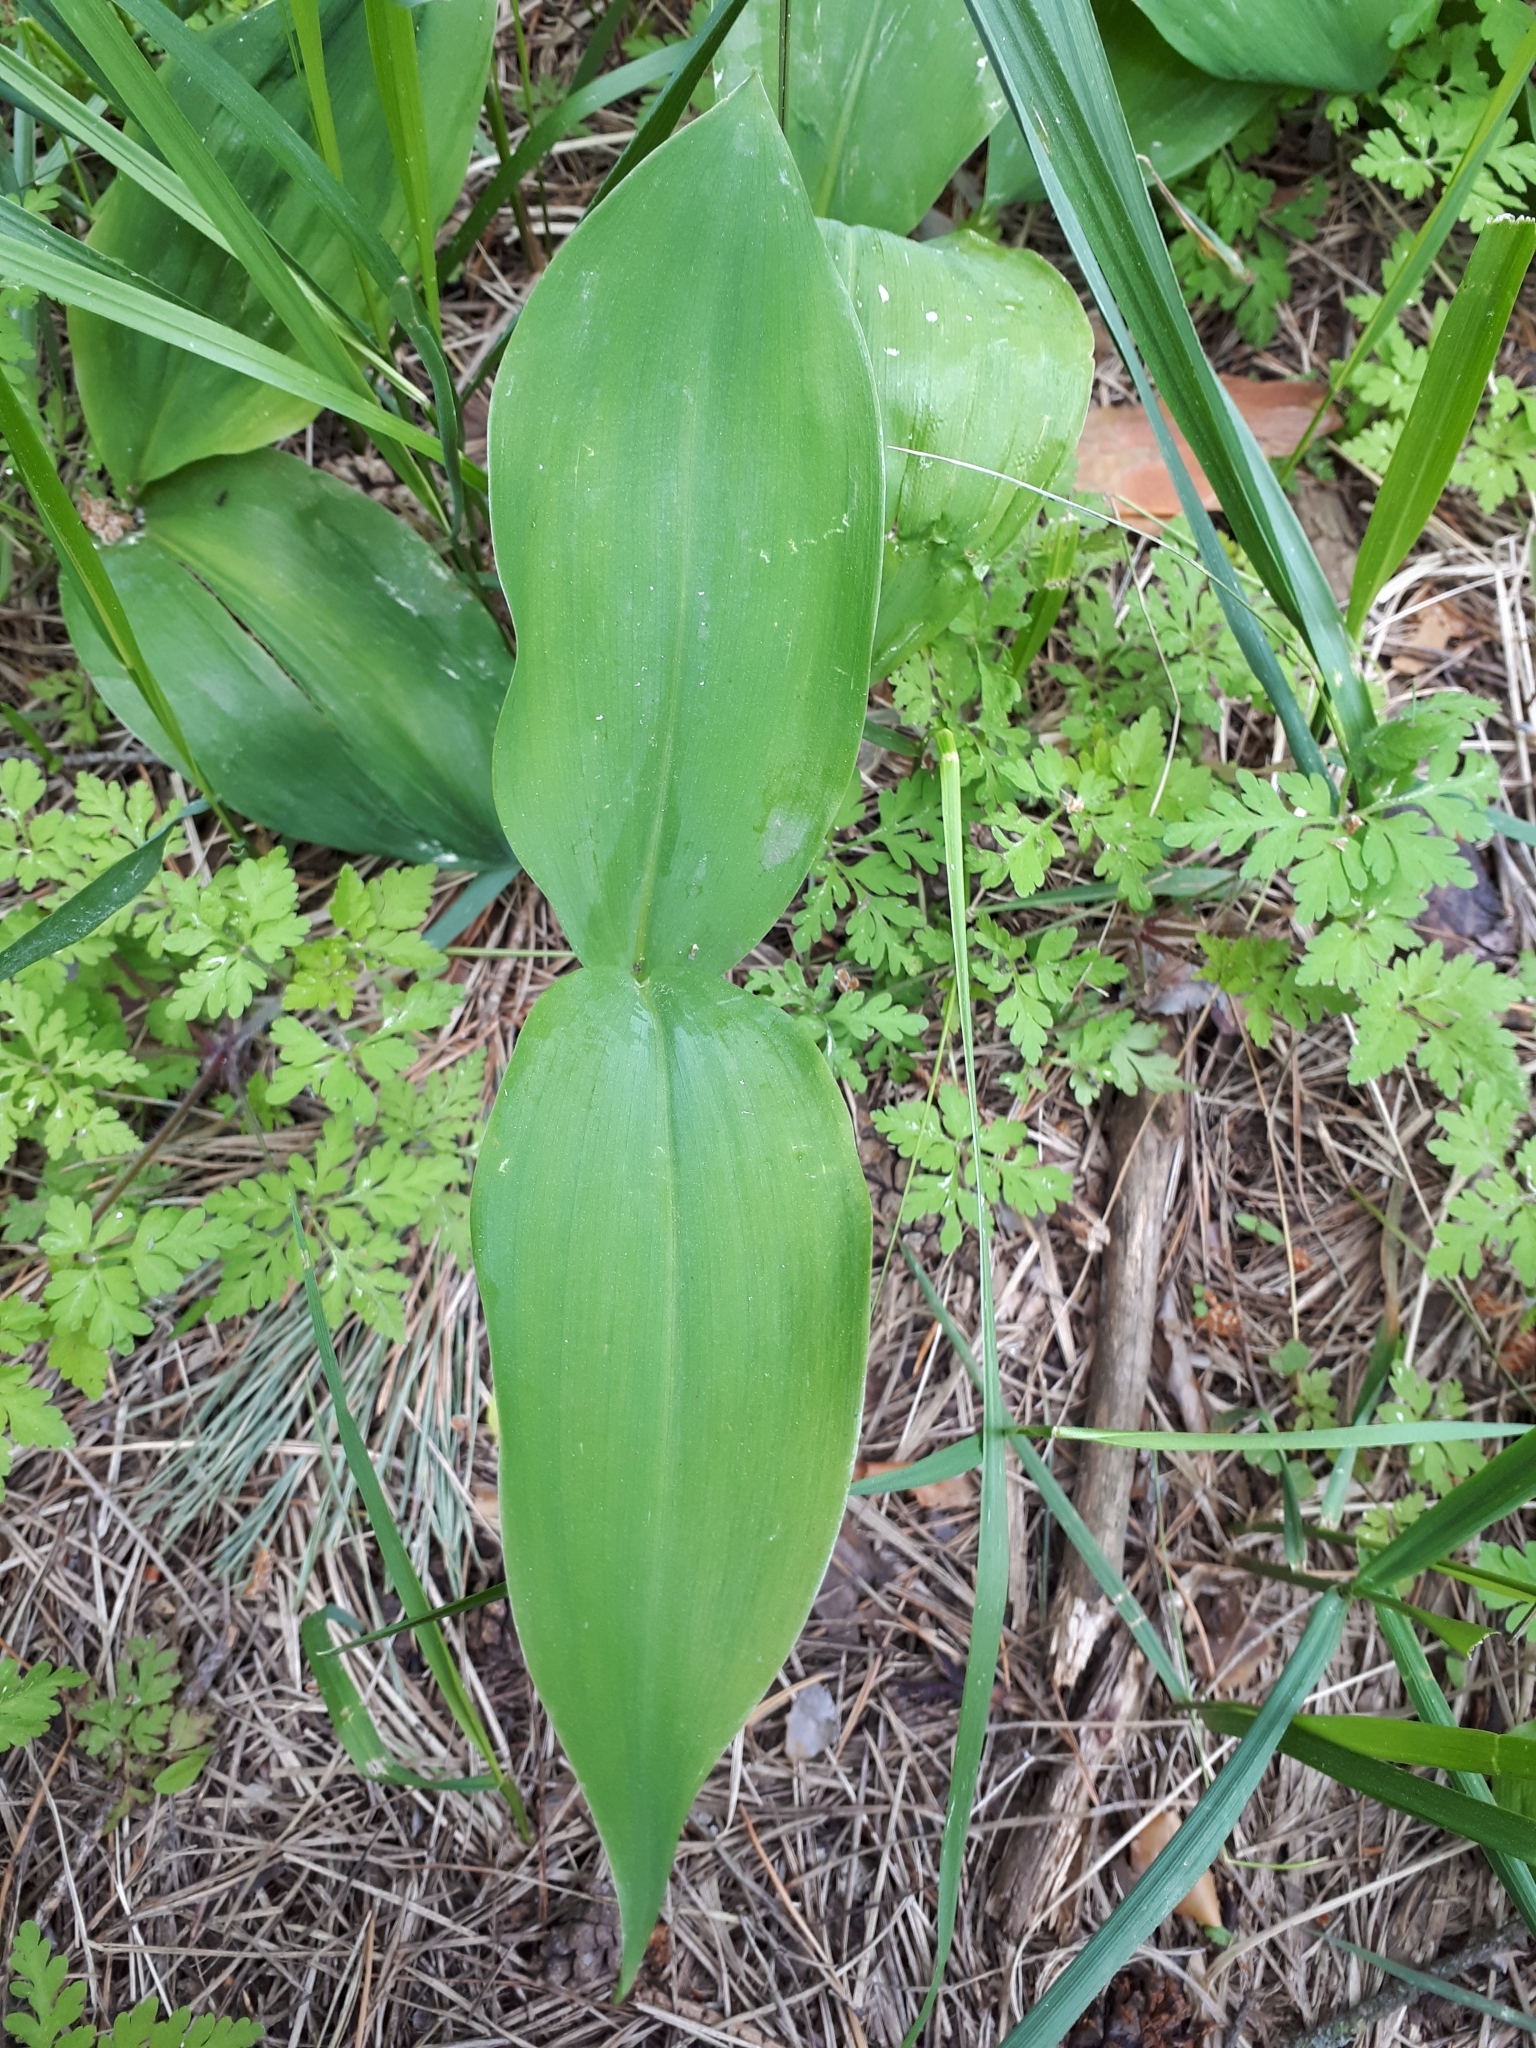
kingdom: Plantae
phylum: Tracheophyta
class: Liliopsida
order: Asparagales
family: Asparagaceae
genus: Convallaria
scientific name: Convallaria majalis
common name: Lily-of-the-valley
